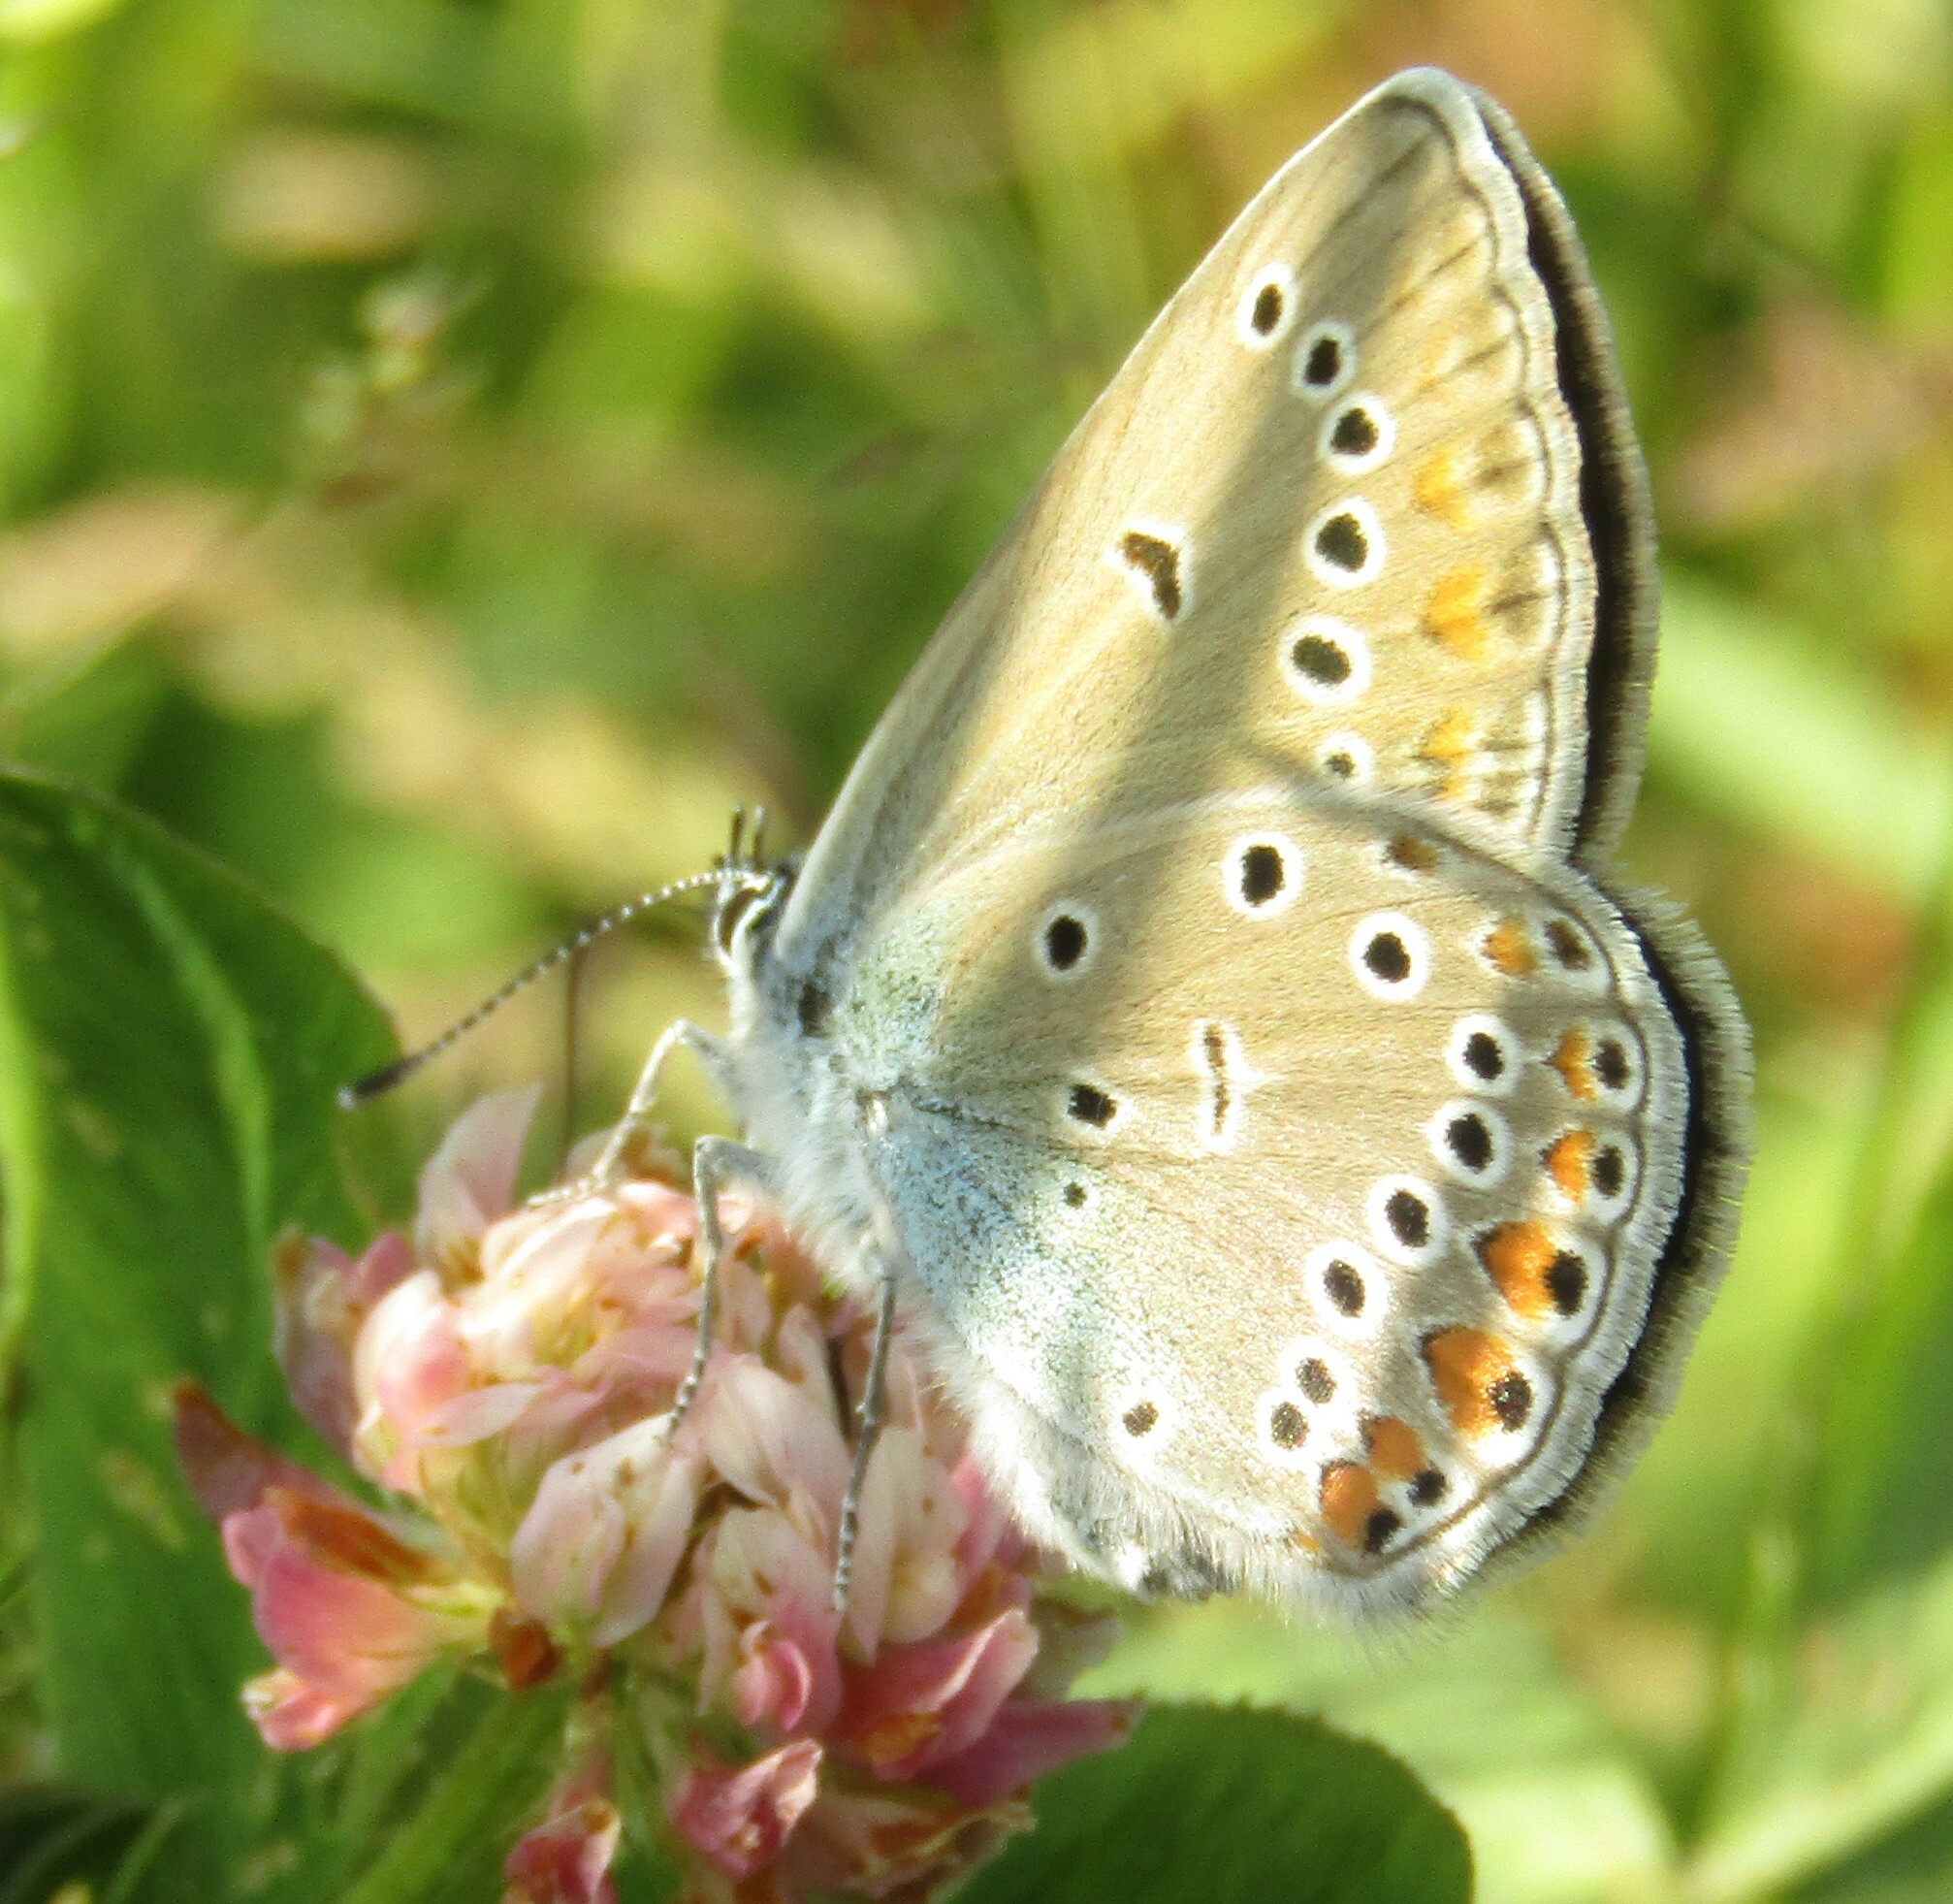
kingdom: Animalia
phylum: Arthropoda
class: Insecta
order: Lepidoptera
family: Lycaenidae
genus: Plebejus
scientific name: Plebejus amanda
